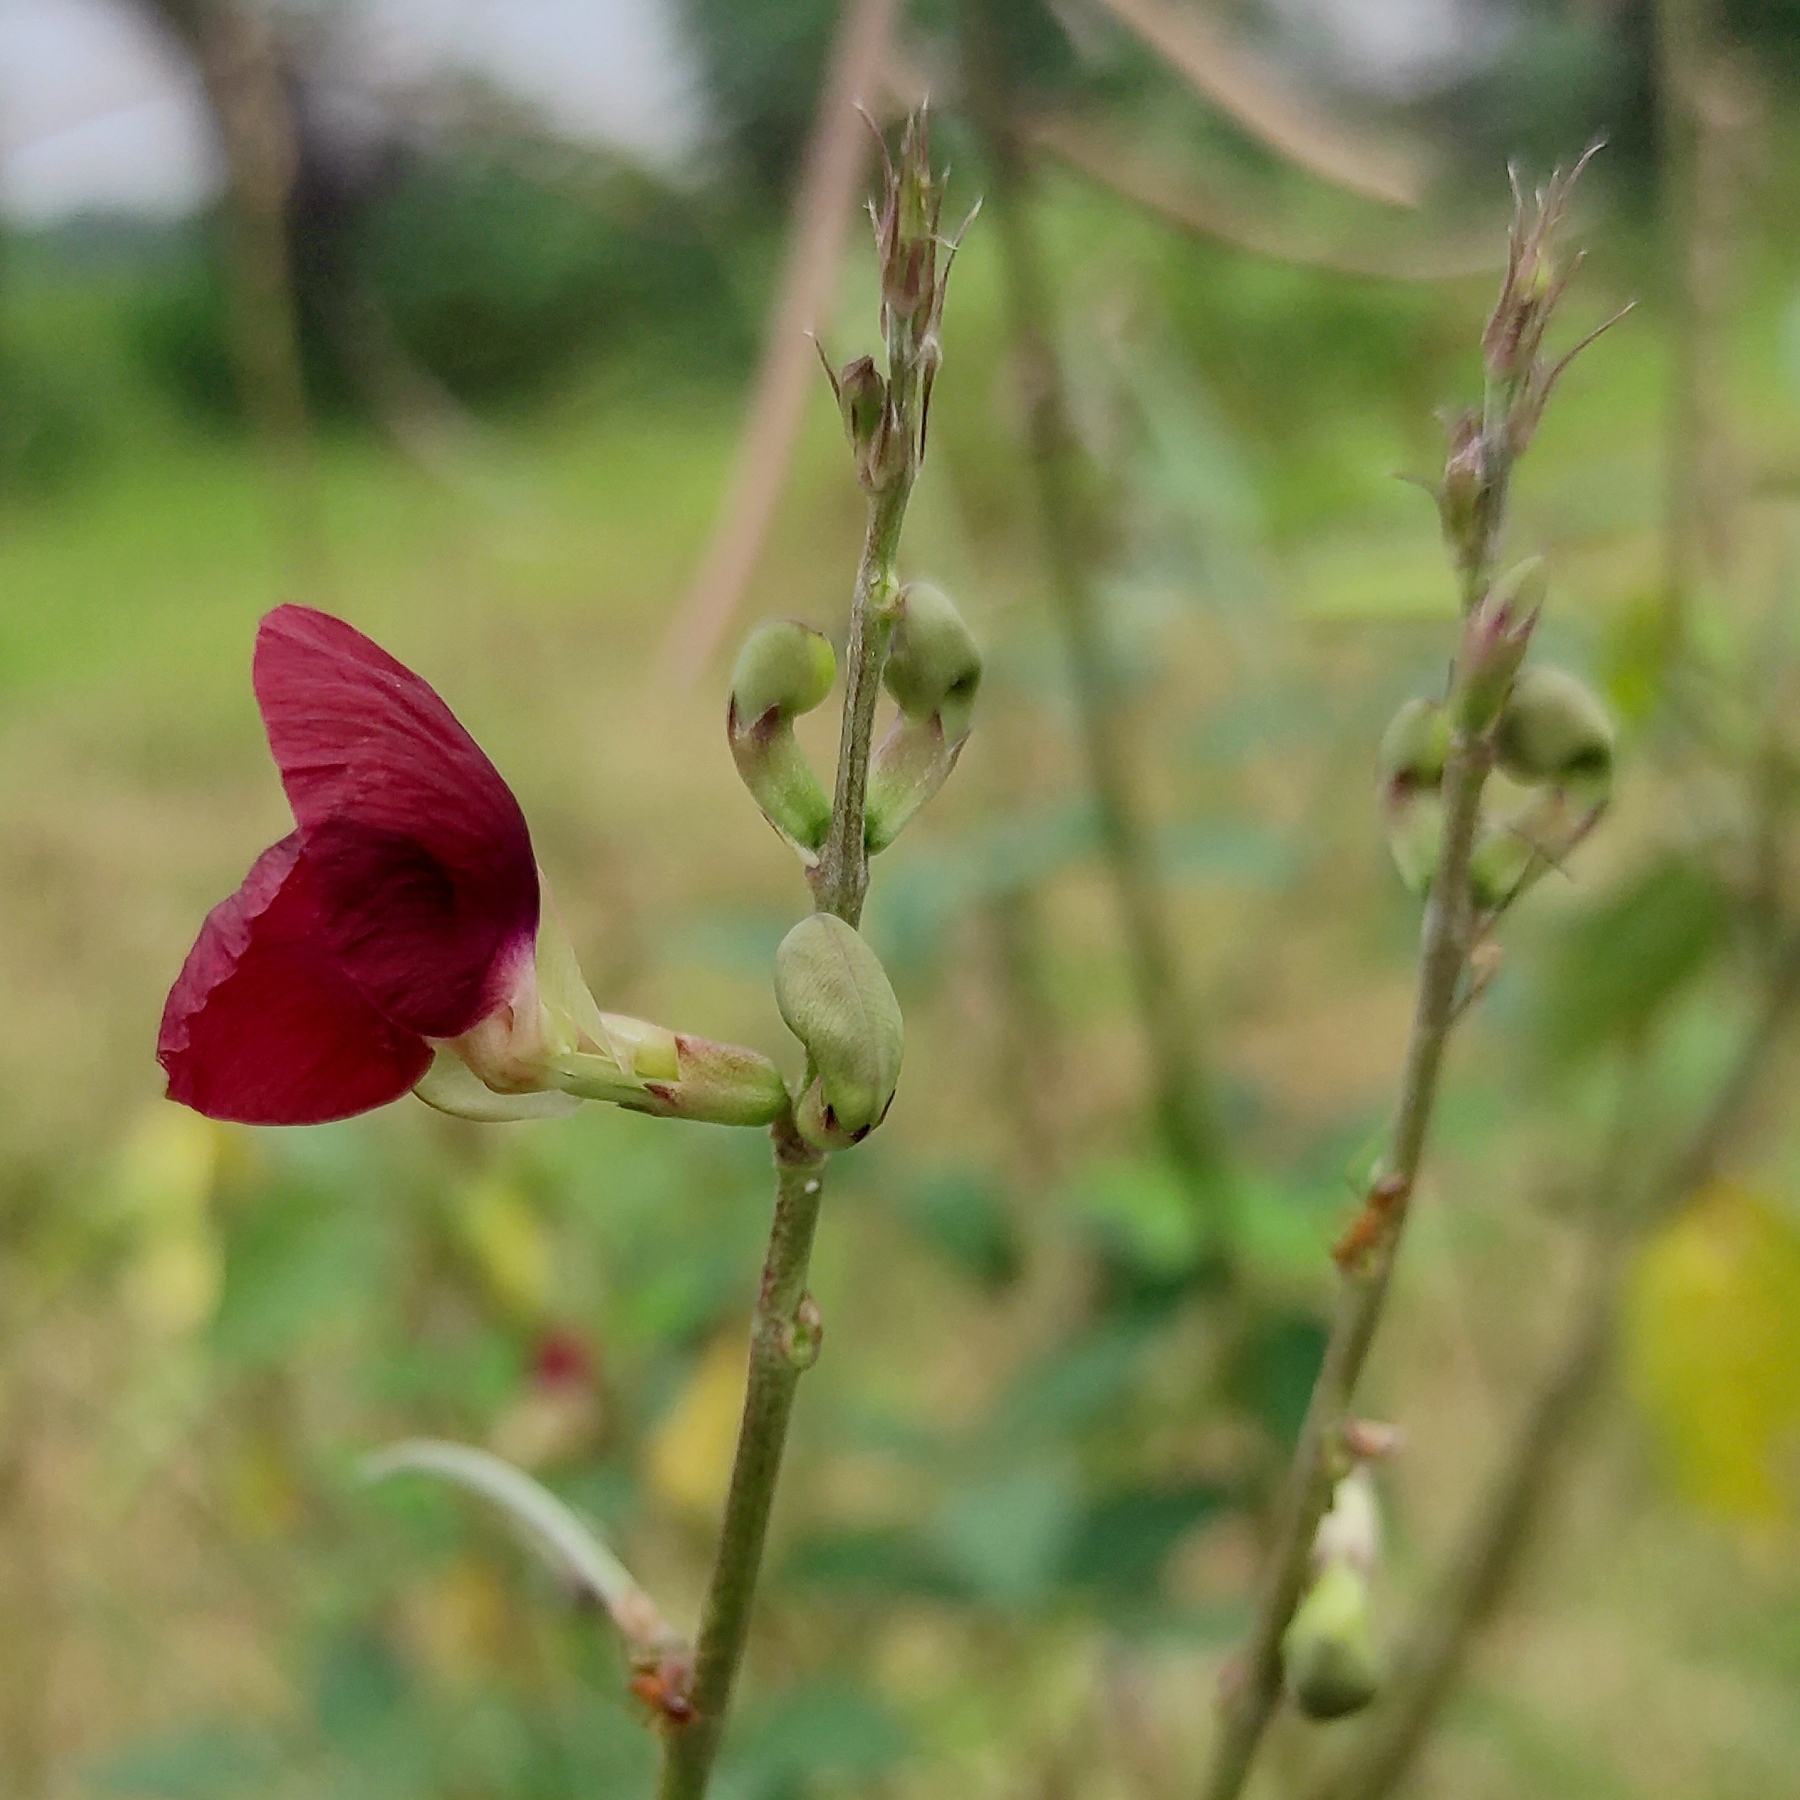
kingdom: Plantae
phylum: Tracheophyta
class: Magnoliopsida
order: Fabales
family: Fabaceae
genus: Macroptilium
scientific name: Macroptilium lathyroides
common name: Wild bushbean
